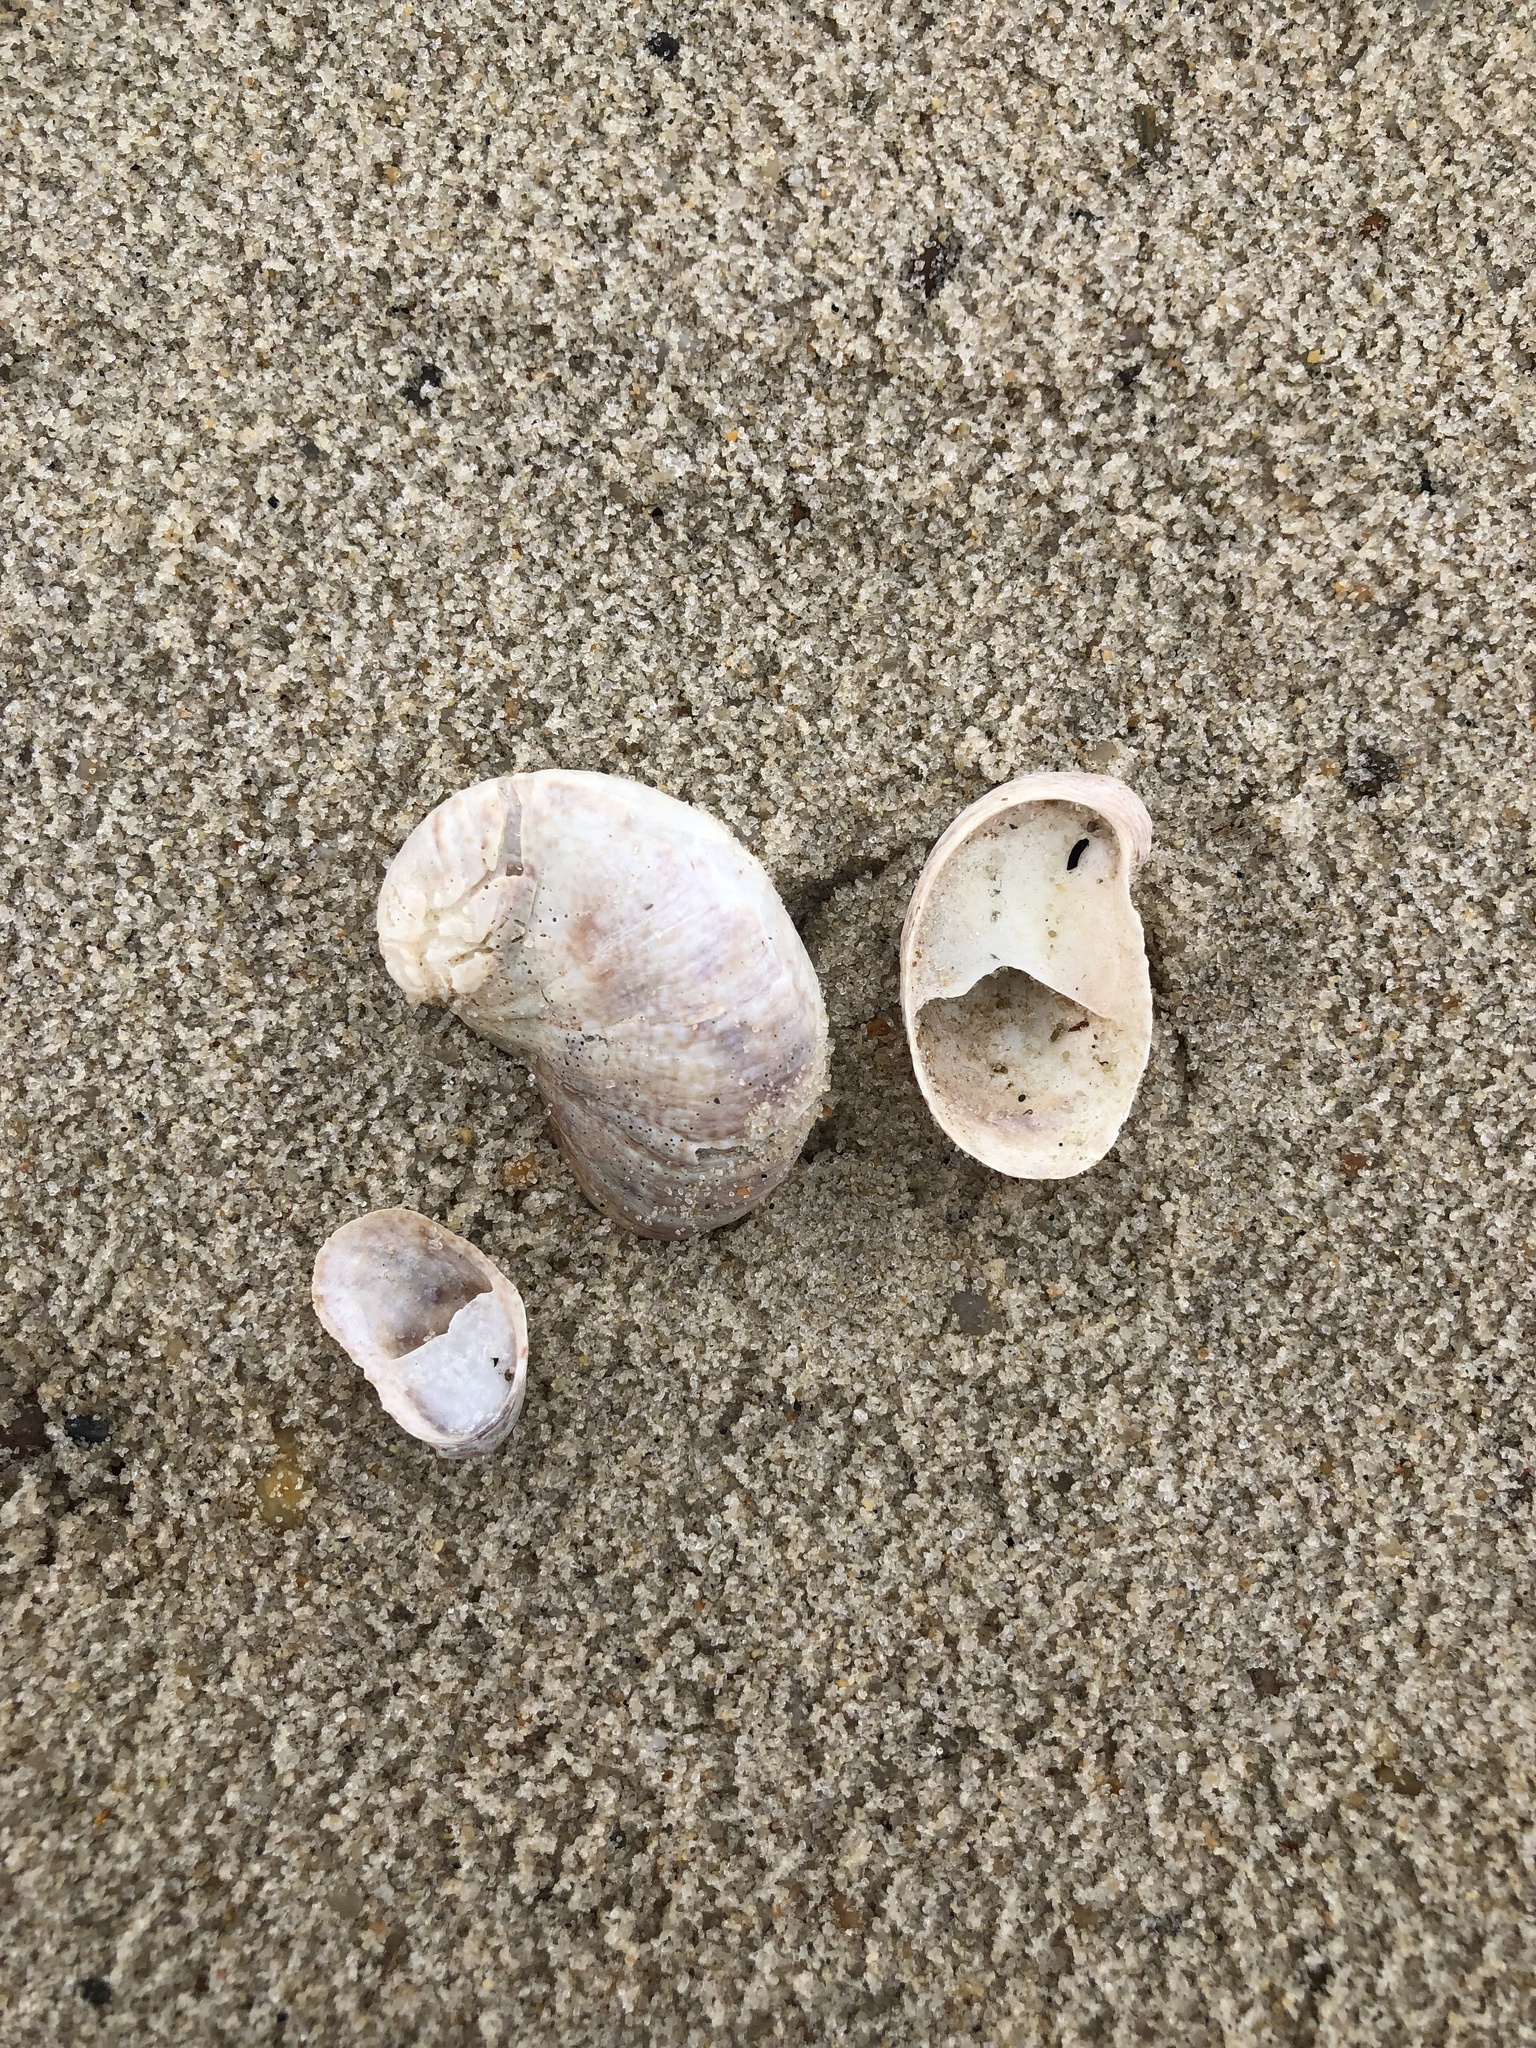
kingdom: Animalia
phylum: Mollusca
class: Gastropoda
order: Littorinimorpha
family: Calyptraeidae
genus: Crepidula
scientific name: Crepidula fornicata
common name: Slipper limpet
